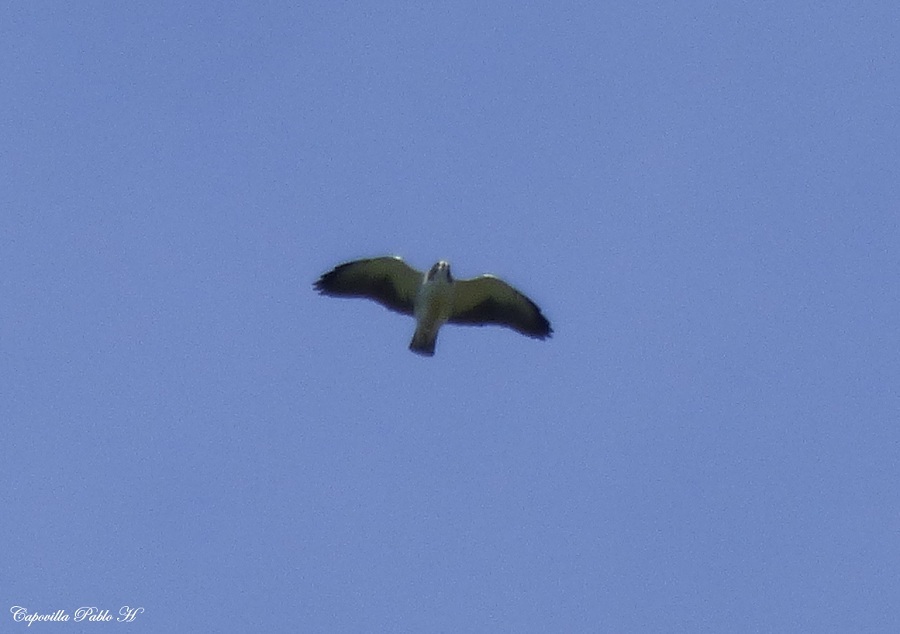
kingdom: Animalia
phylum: Chordata
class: Aves
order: Accipitriformes
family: Accipitridae
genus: Buteo
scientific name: Buteo brachyurus
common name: Short-tailed hawk
